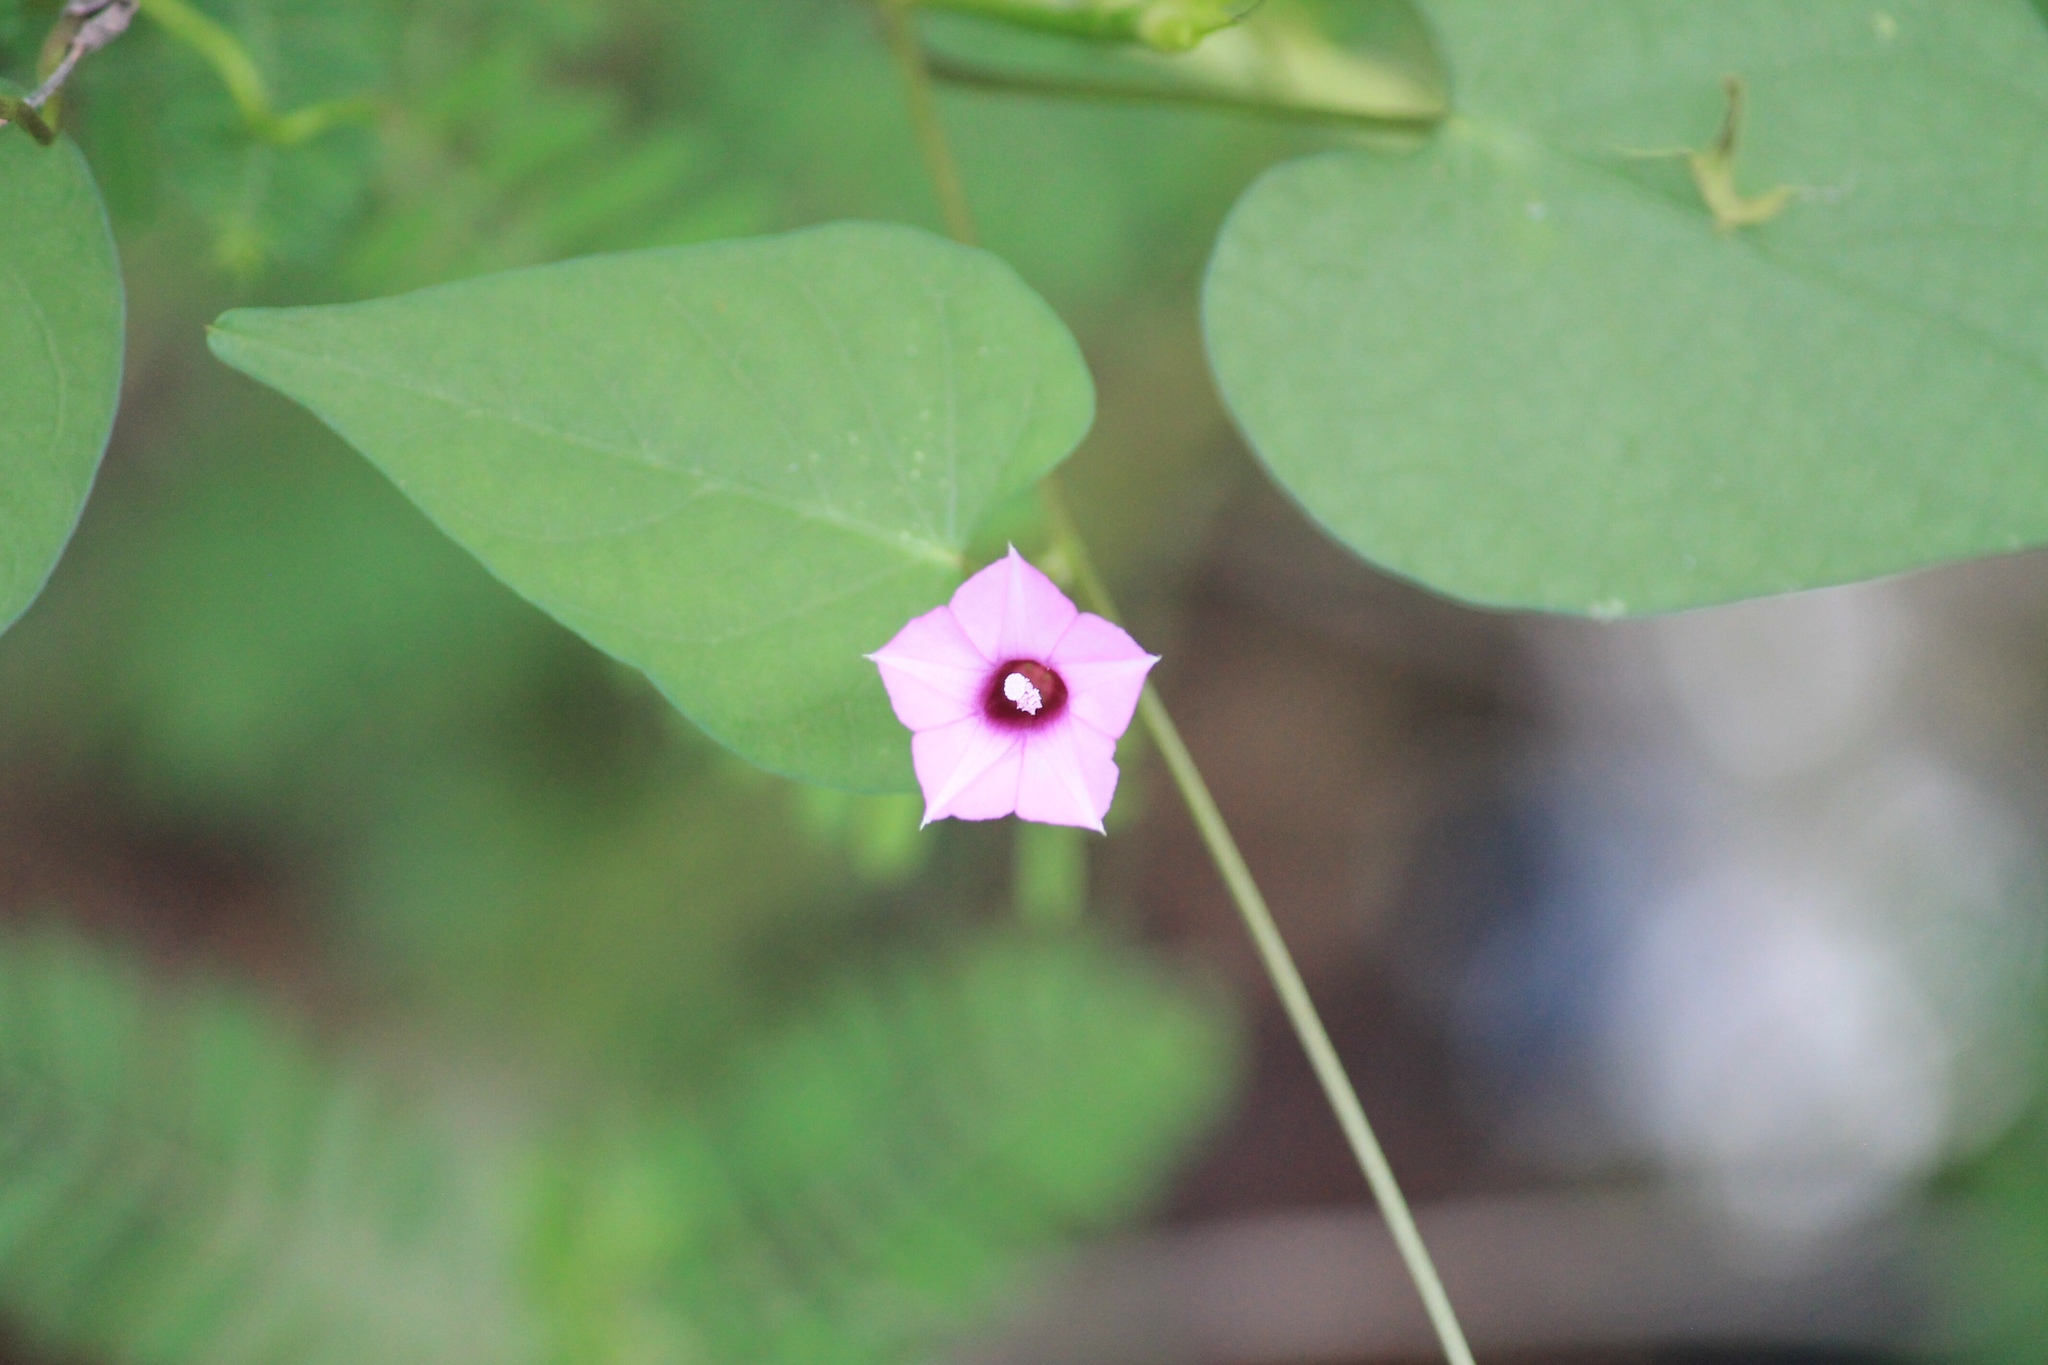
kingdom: Plantae
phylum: Tracheophyta
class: Magnoliopsida
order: Solanales
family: Convolvulaceae
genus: Ipomoea
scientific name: Ipomoea triloba
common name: Little-bell
